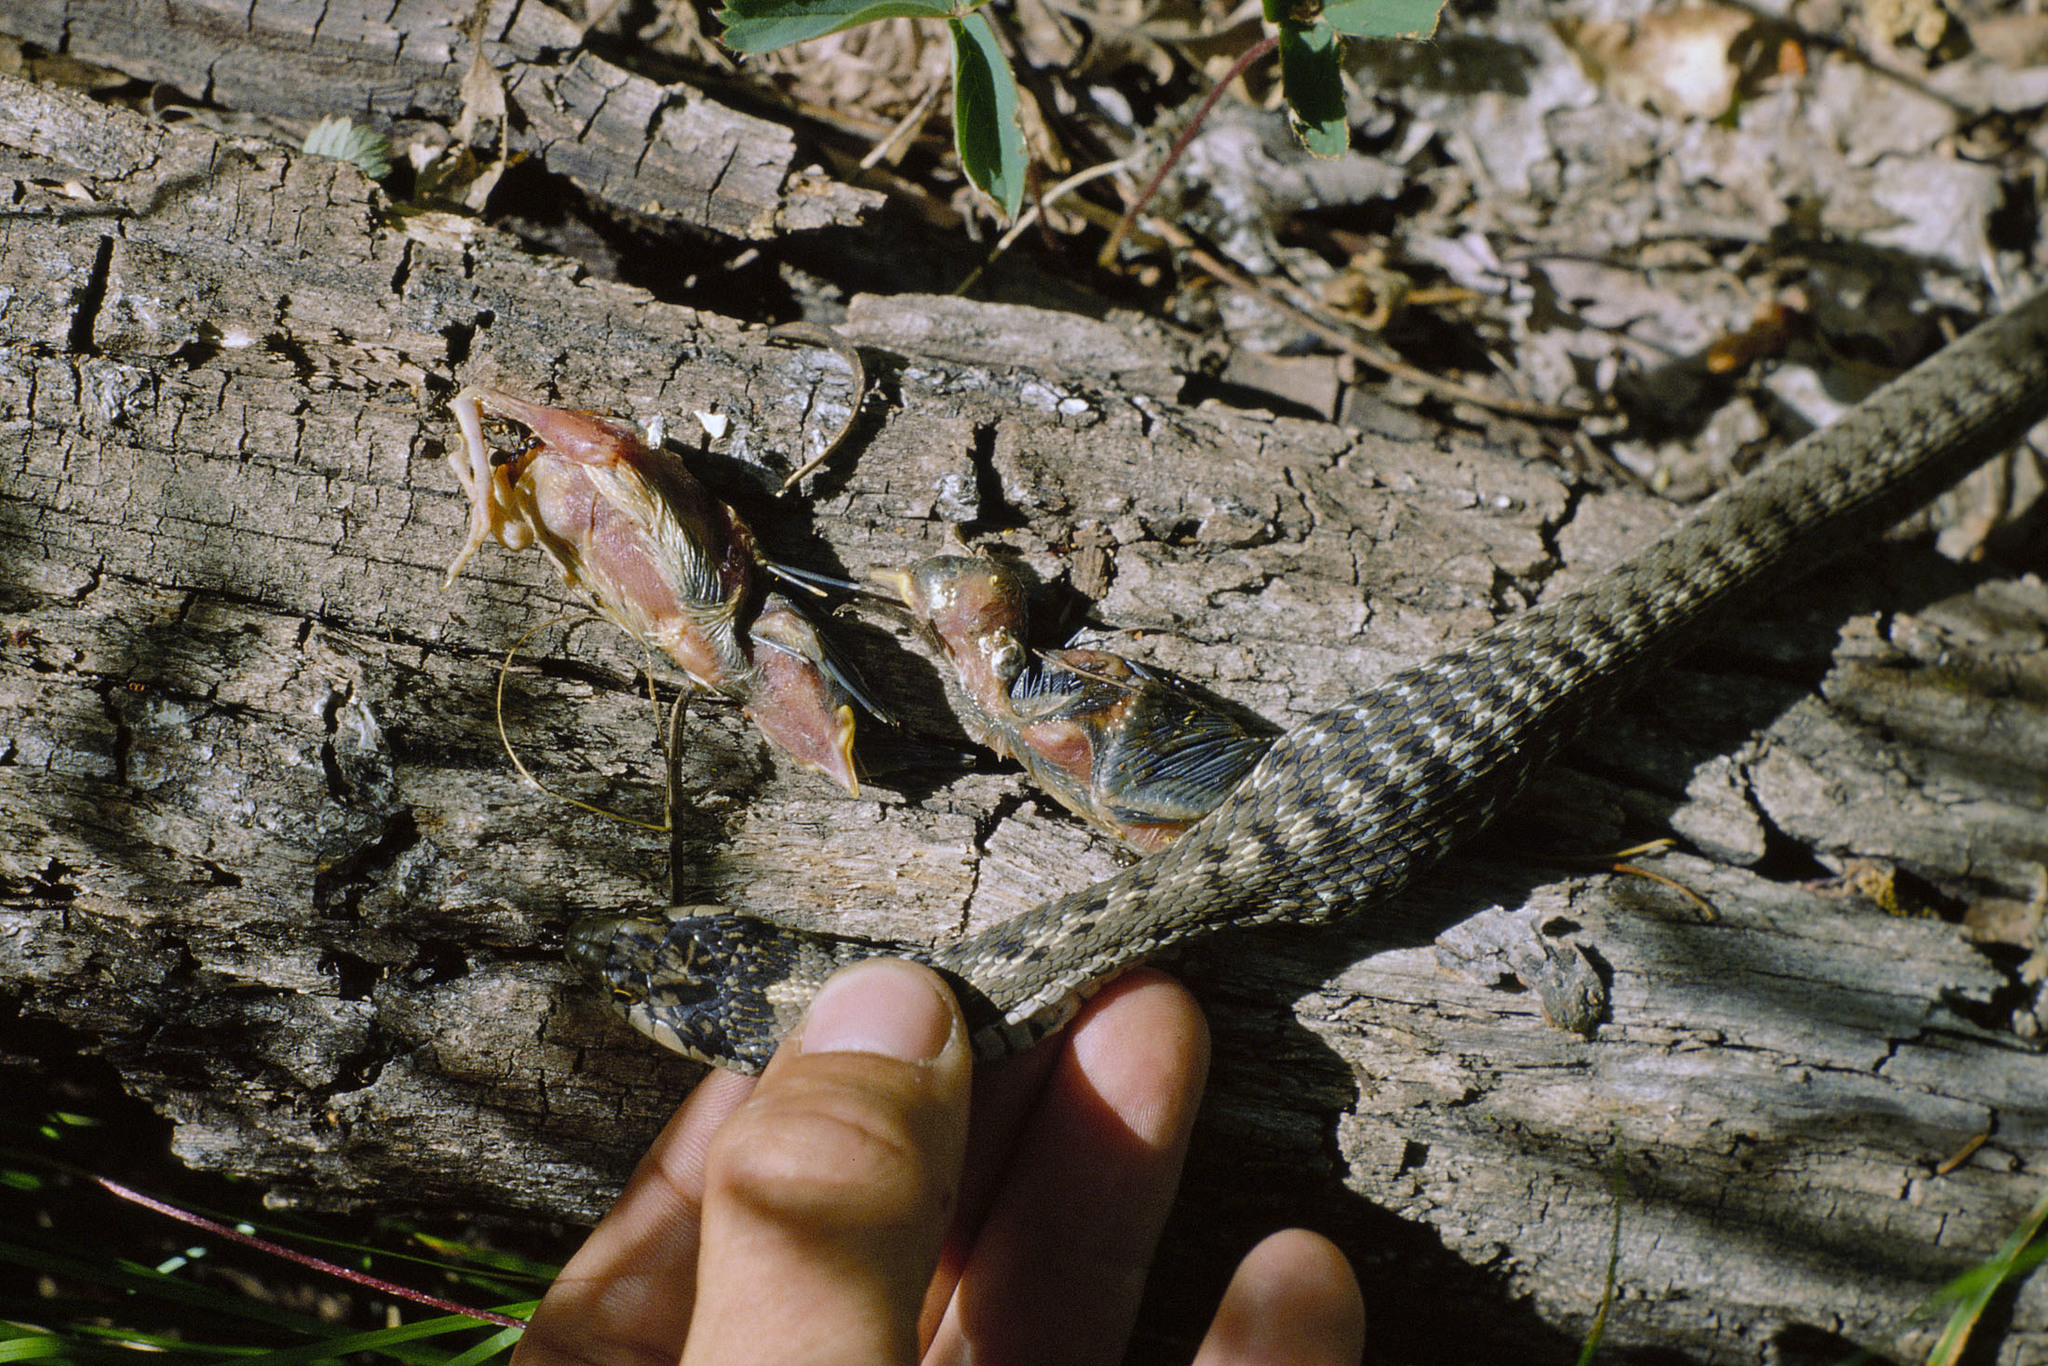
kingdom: Animalia
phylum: Chordata
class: Squamata
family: Colubridae
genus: Thamnophis
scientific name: Thamnophis elegans
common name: Western terrestrial garter snake
